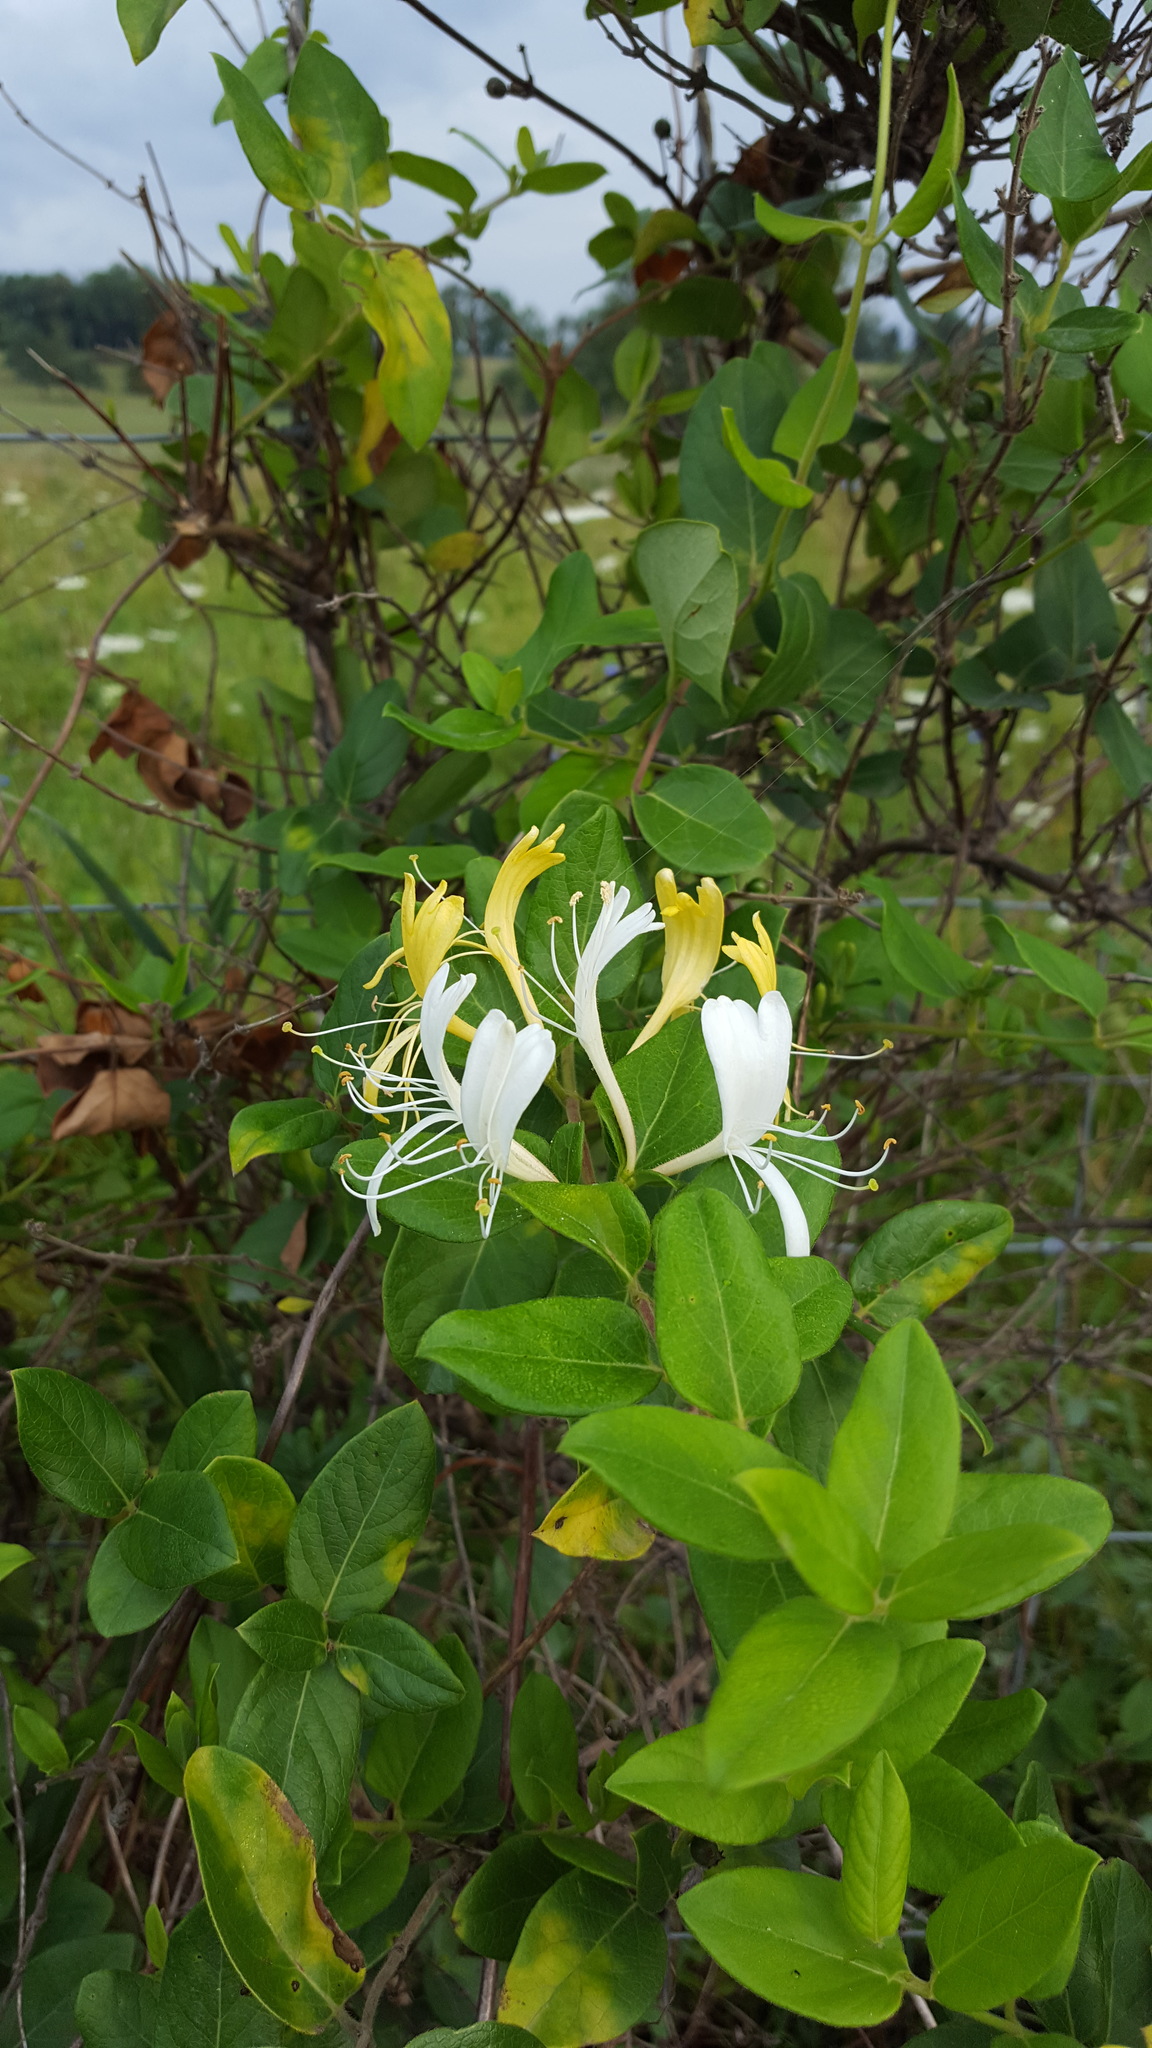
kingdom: Plantae
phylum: Tracheophyta
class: Magnoliopsida
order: Dipsacales
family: Caprifoliaceae
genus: Lonicera
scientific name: Lonicera japonica
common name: Japanese honeysuckle
